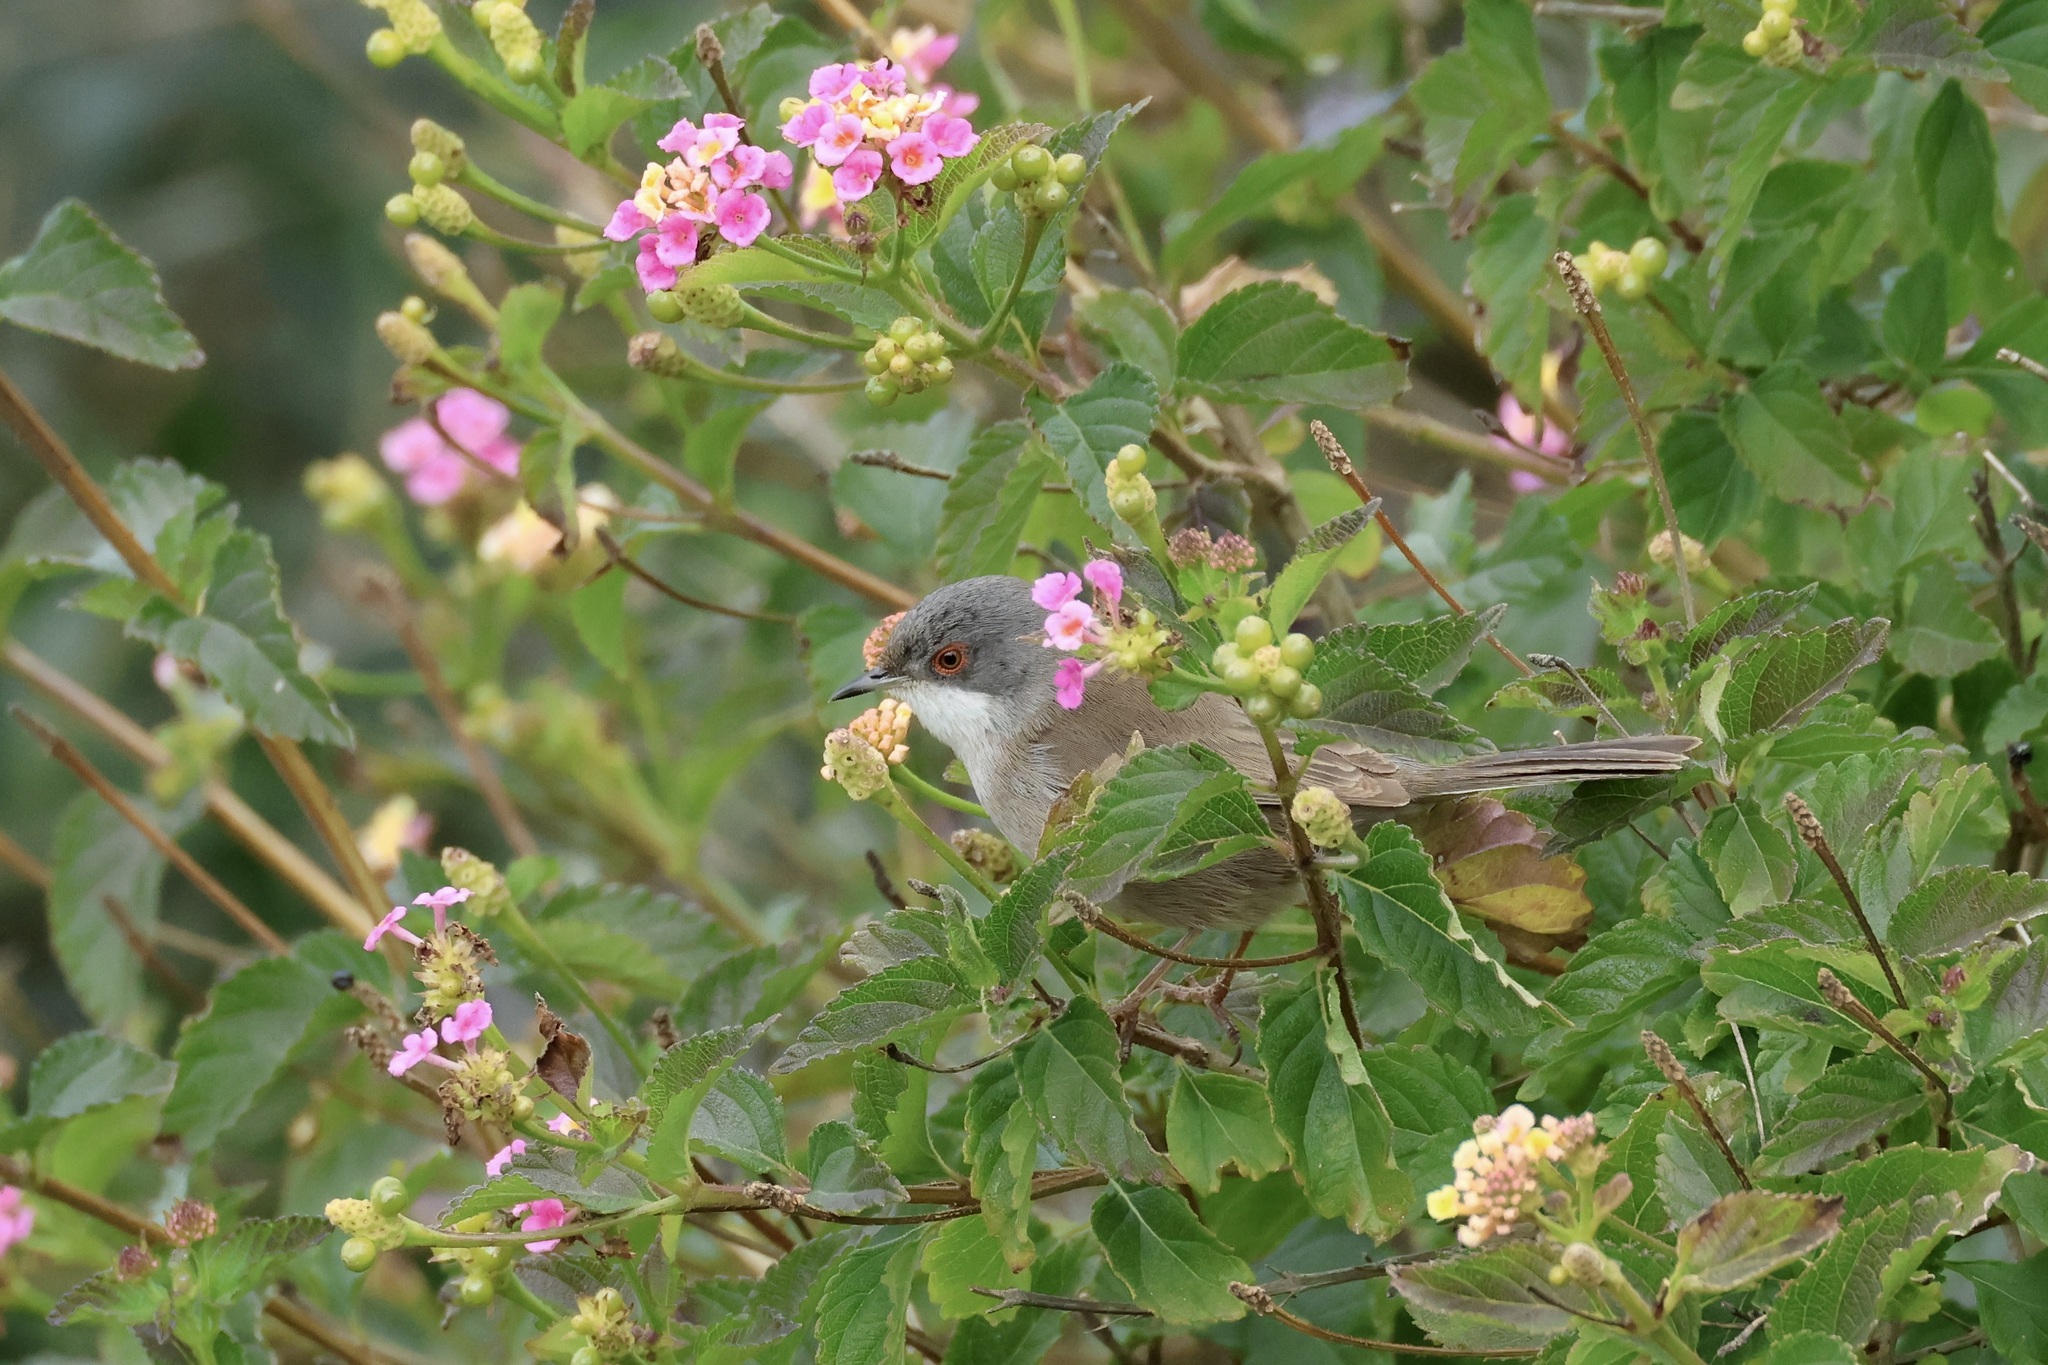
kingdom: Animalia
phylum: Chordata
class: Aves
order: Passeriformes
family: Sylviidae
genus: Curruca
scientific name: Curruca melanocephala
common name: Sardinian warbler
